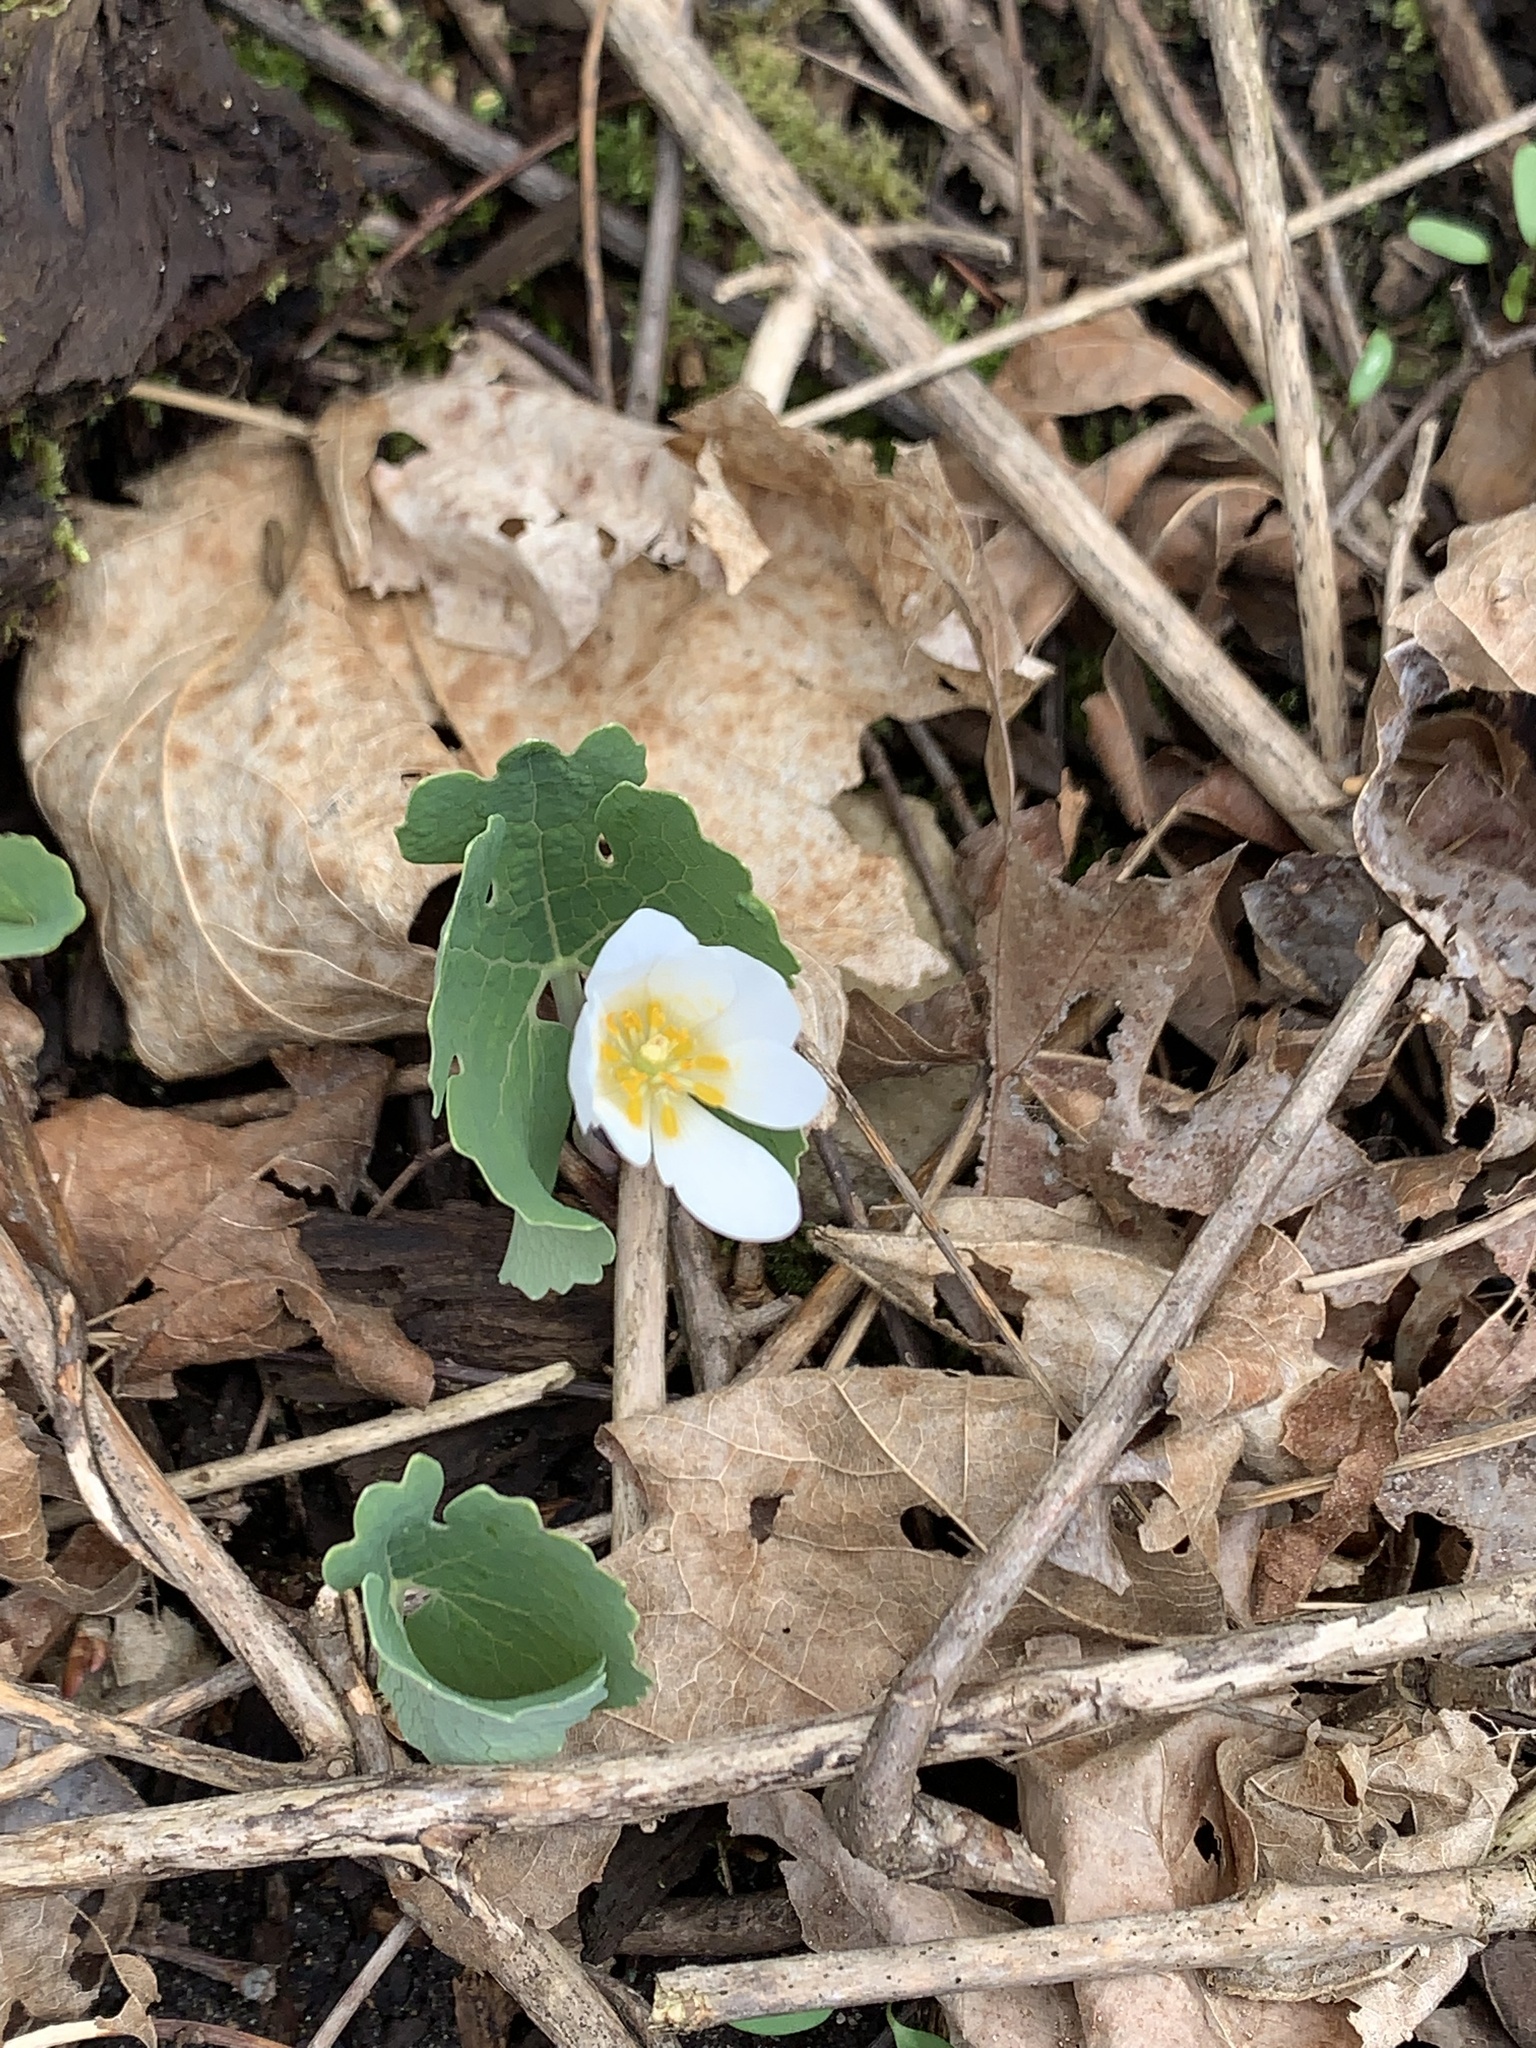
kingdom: Plantae
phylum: Tracheophyta
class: Magnoliopsida
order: Ranunculales
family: Papaveraceae
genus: Sanguinaria
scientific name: Sanguinaria canadensis
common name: Bloodroot
